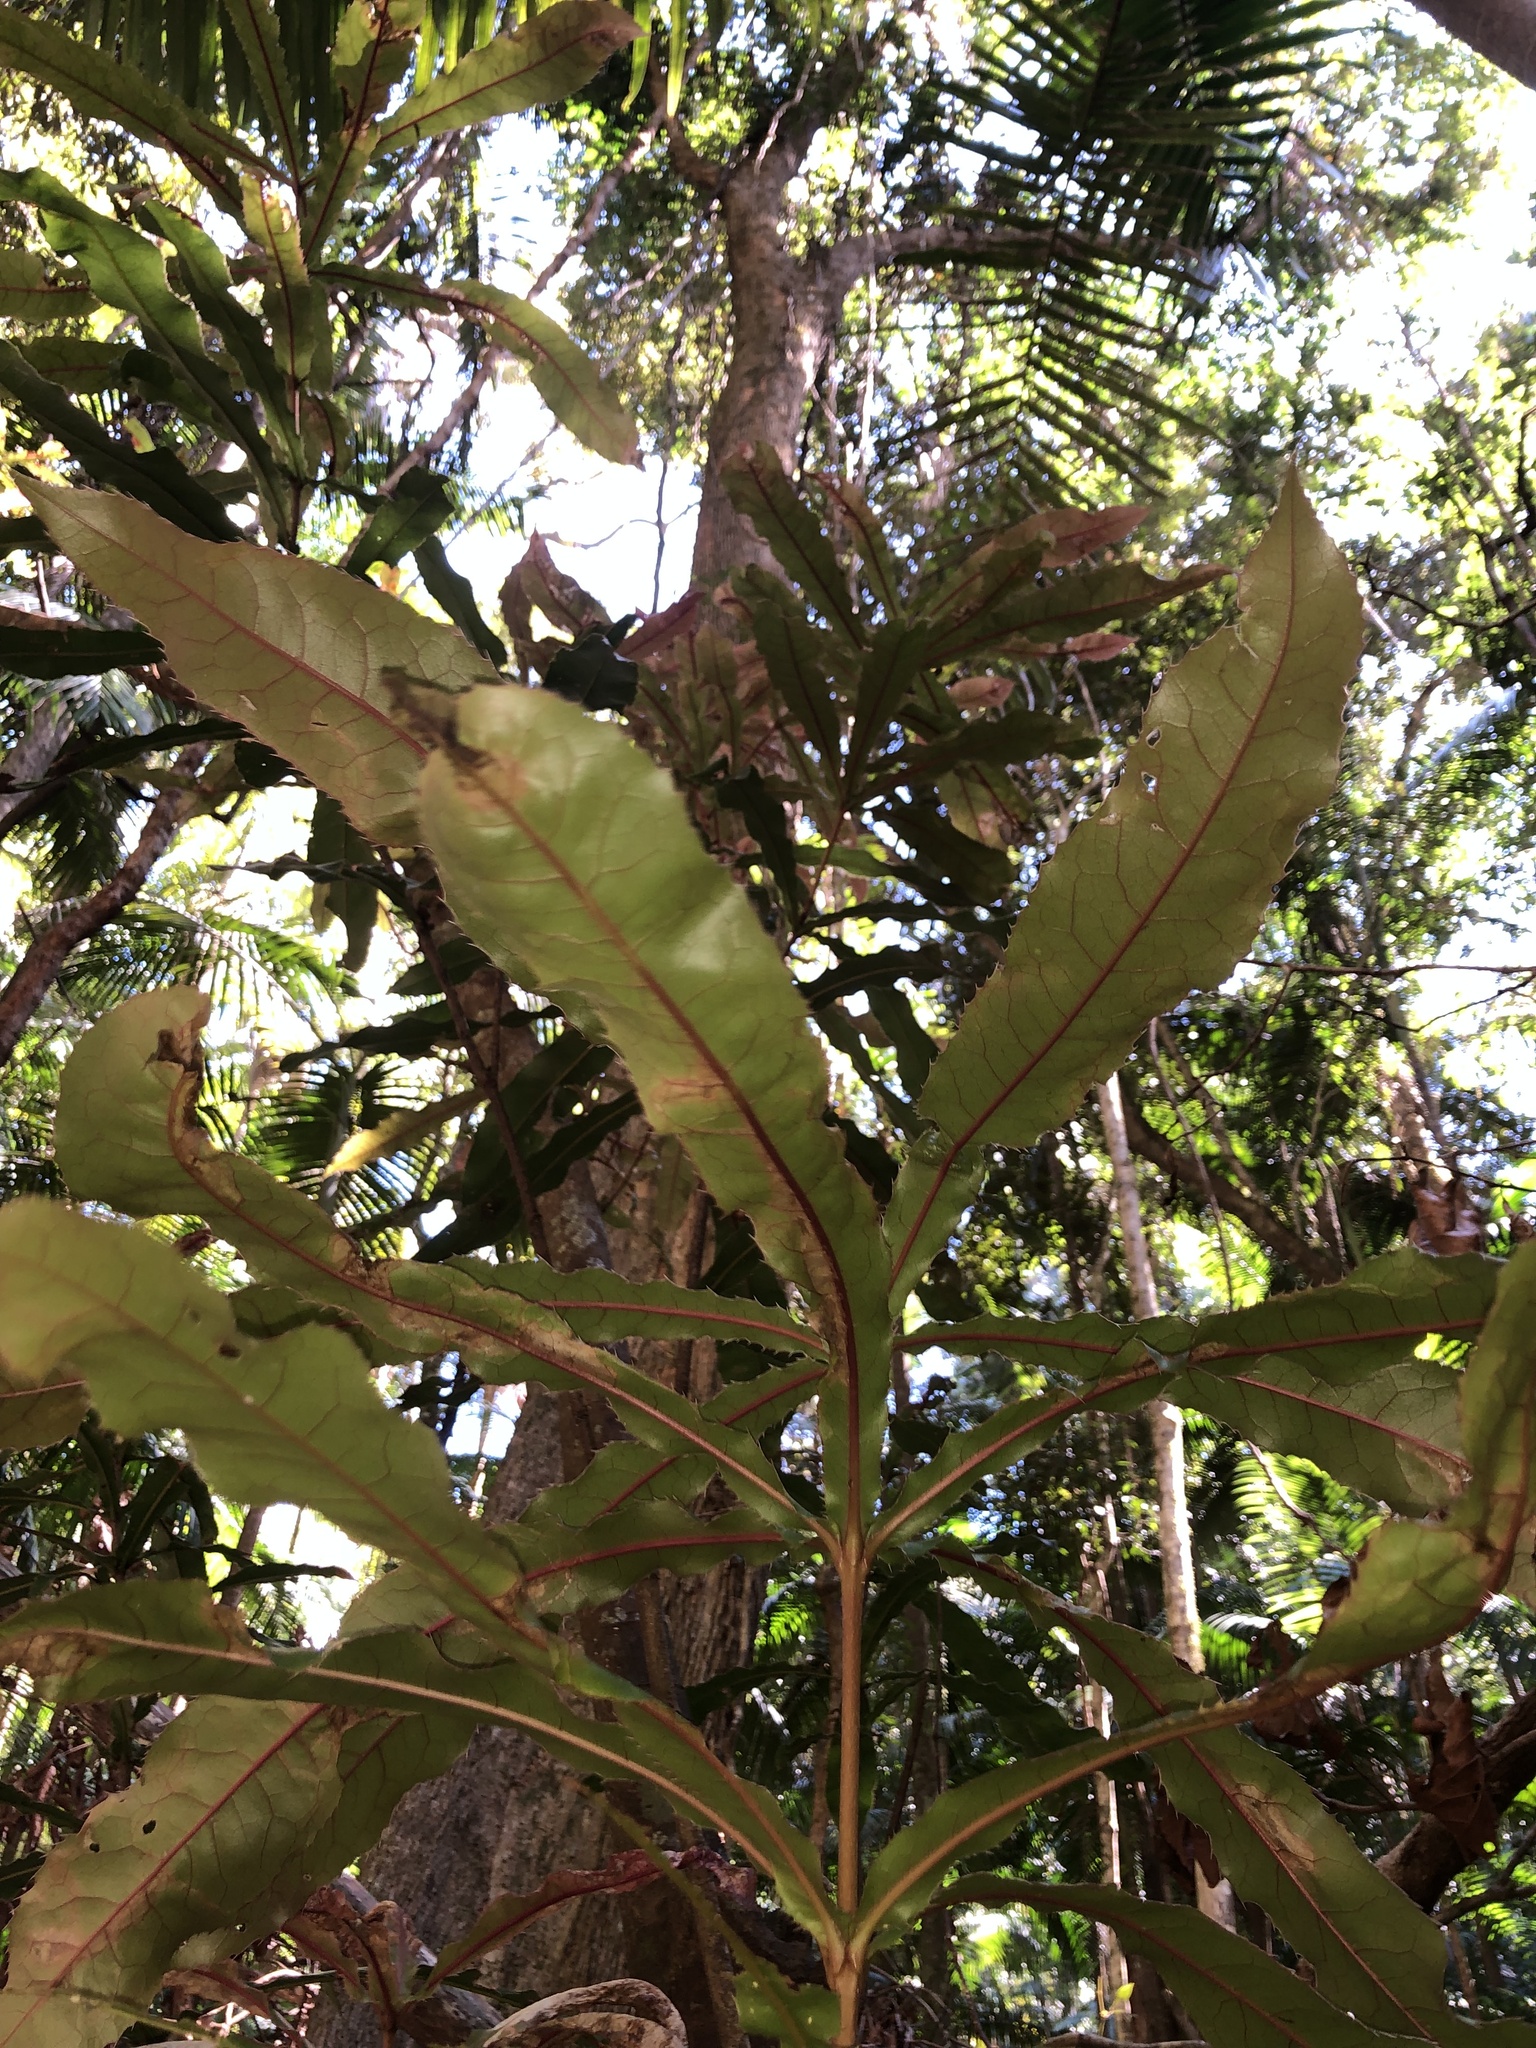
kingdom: Plantae
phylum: Tracheophyta
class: Magnoliopsida
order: Proteales
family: Proteaceae
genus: Macadamia
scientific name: Macadamia tetraphylla
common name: Macadamia nut
